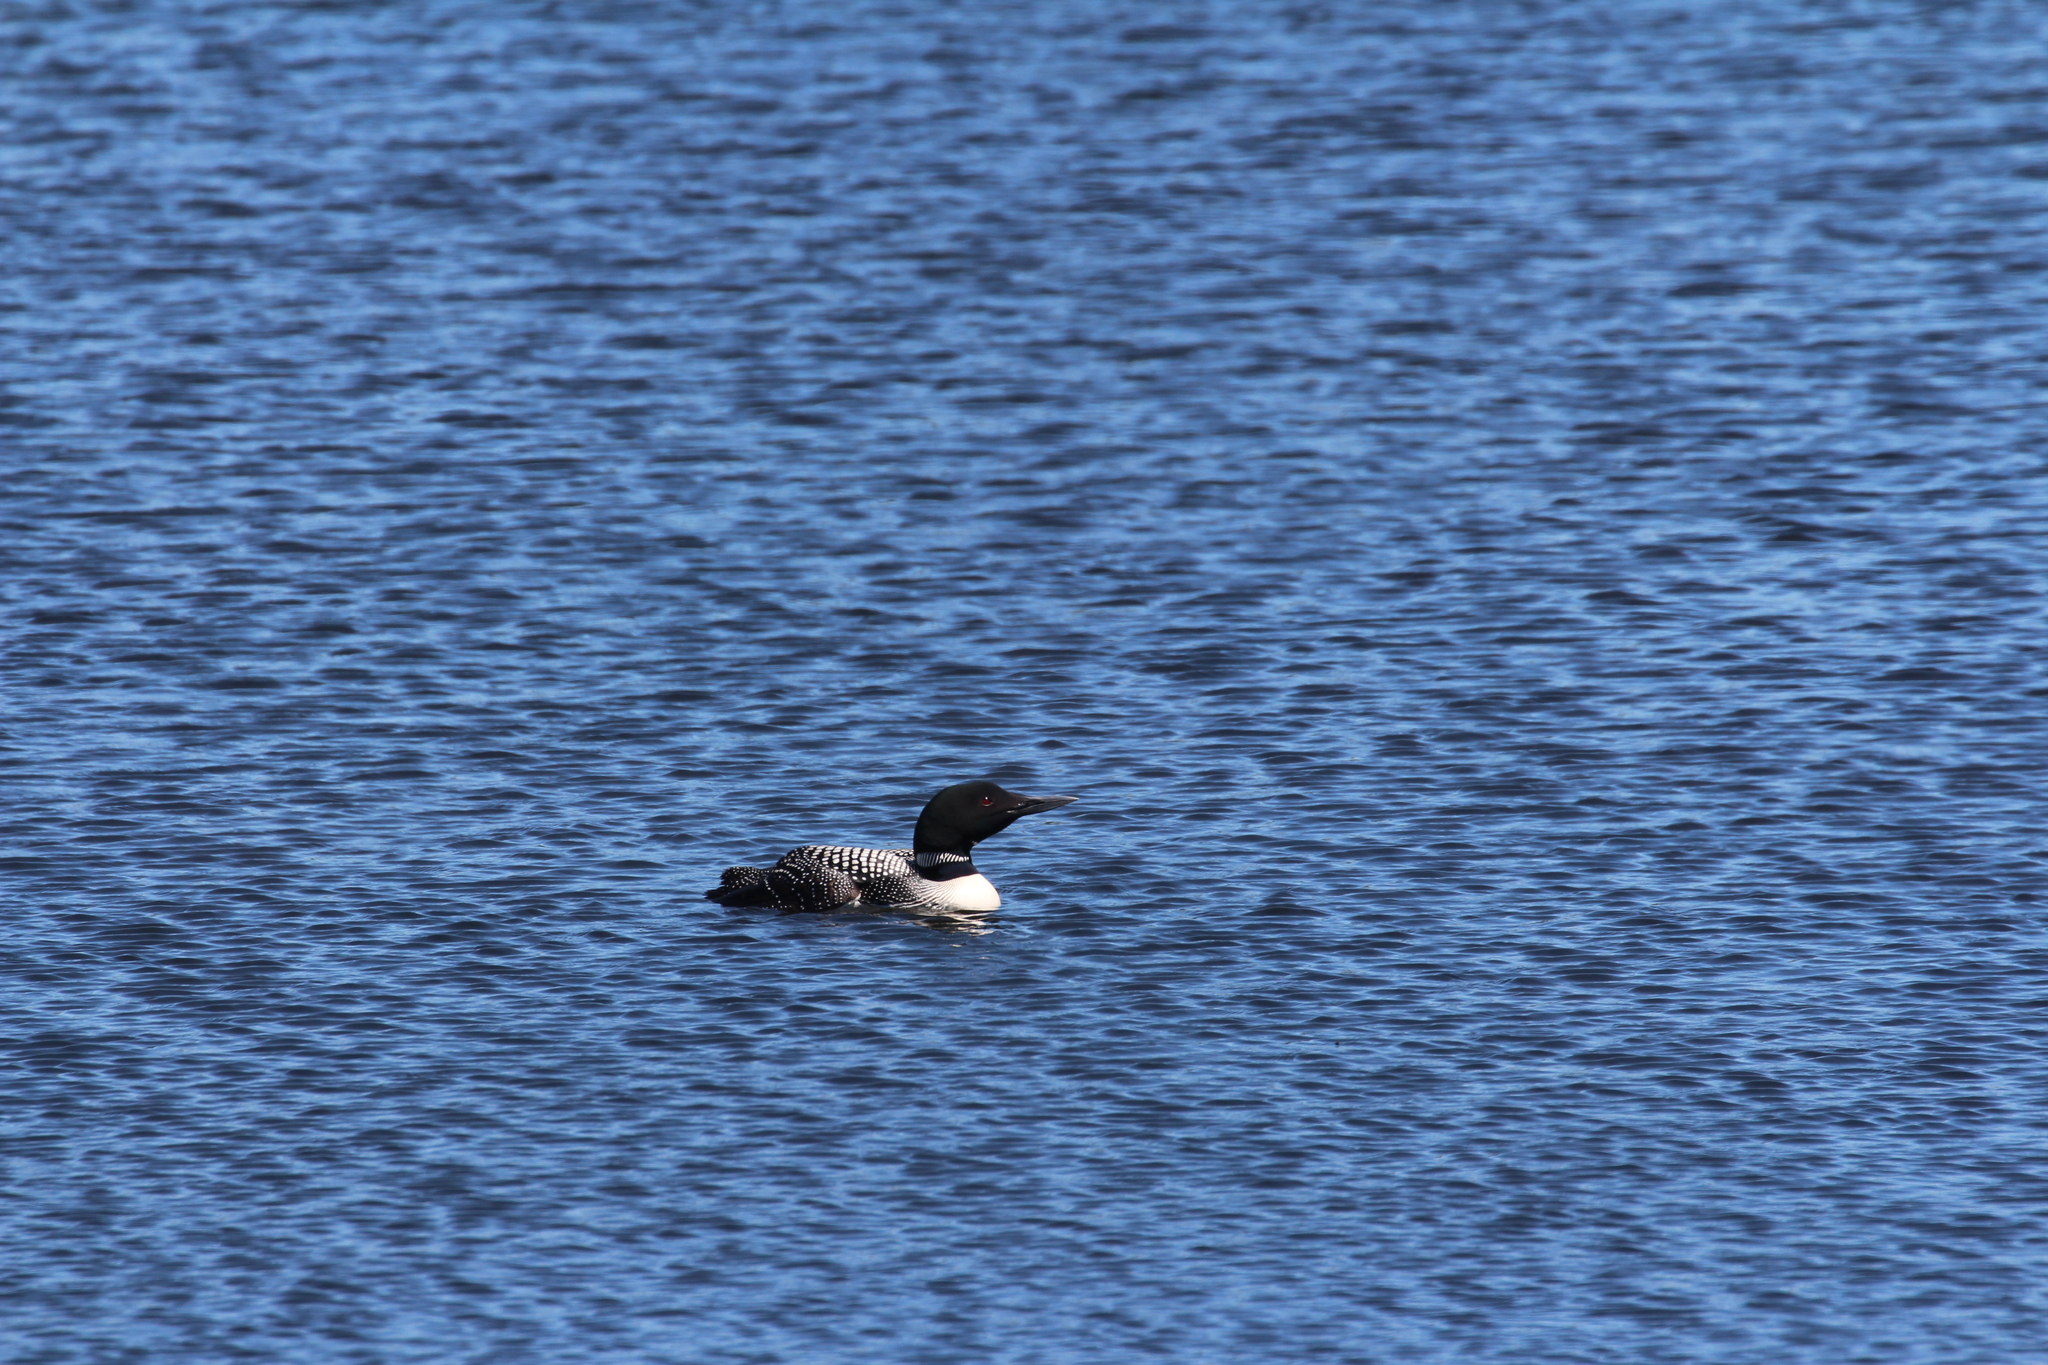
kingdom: Animalia
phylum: Chordata
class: Aves
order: Gaviiformes
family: Gaviidae
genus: Gavia
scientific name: Gavia immer
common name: Common loon
